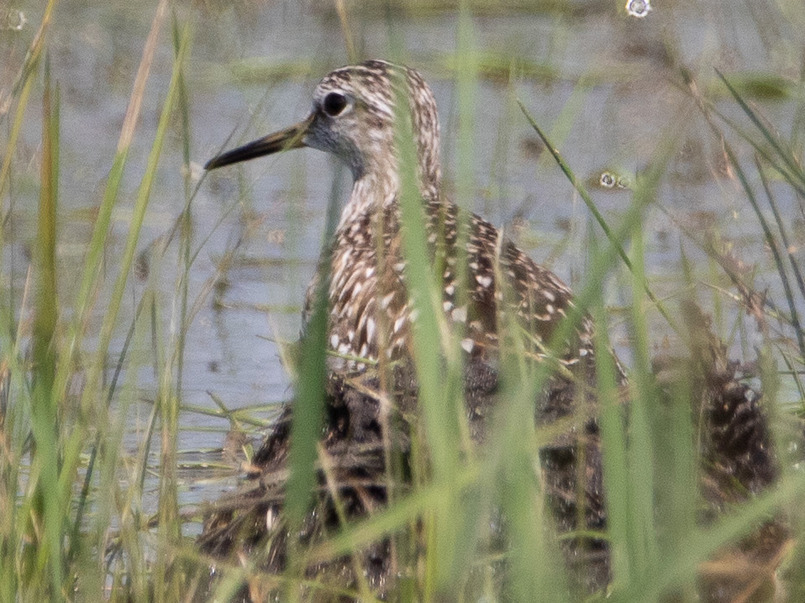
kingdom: Animalia
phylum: Chordata
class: Aves
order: Charadriiformes
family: Scolopacidae
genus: Tringa
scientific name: Tringa glareola
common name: Wood sandpiper
